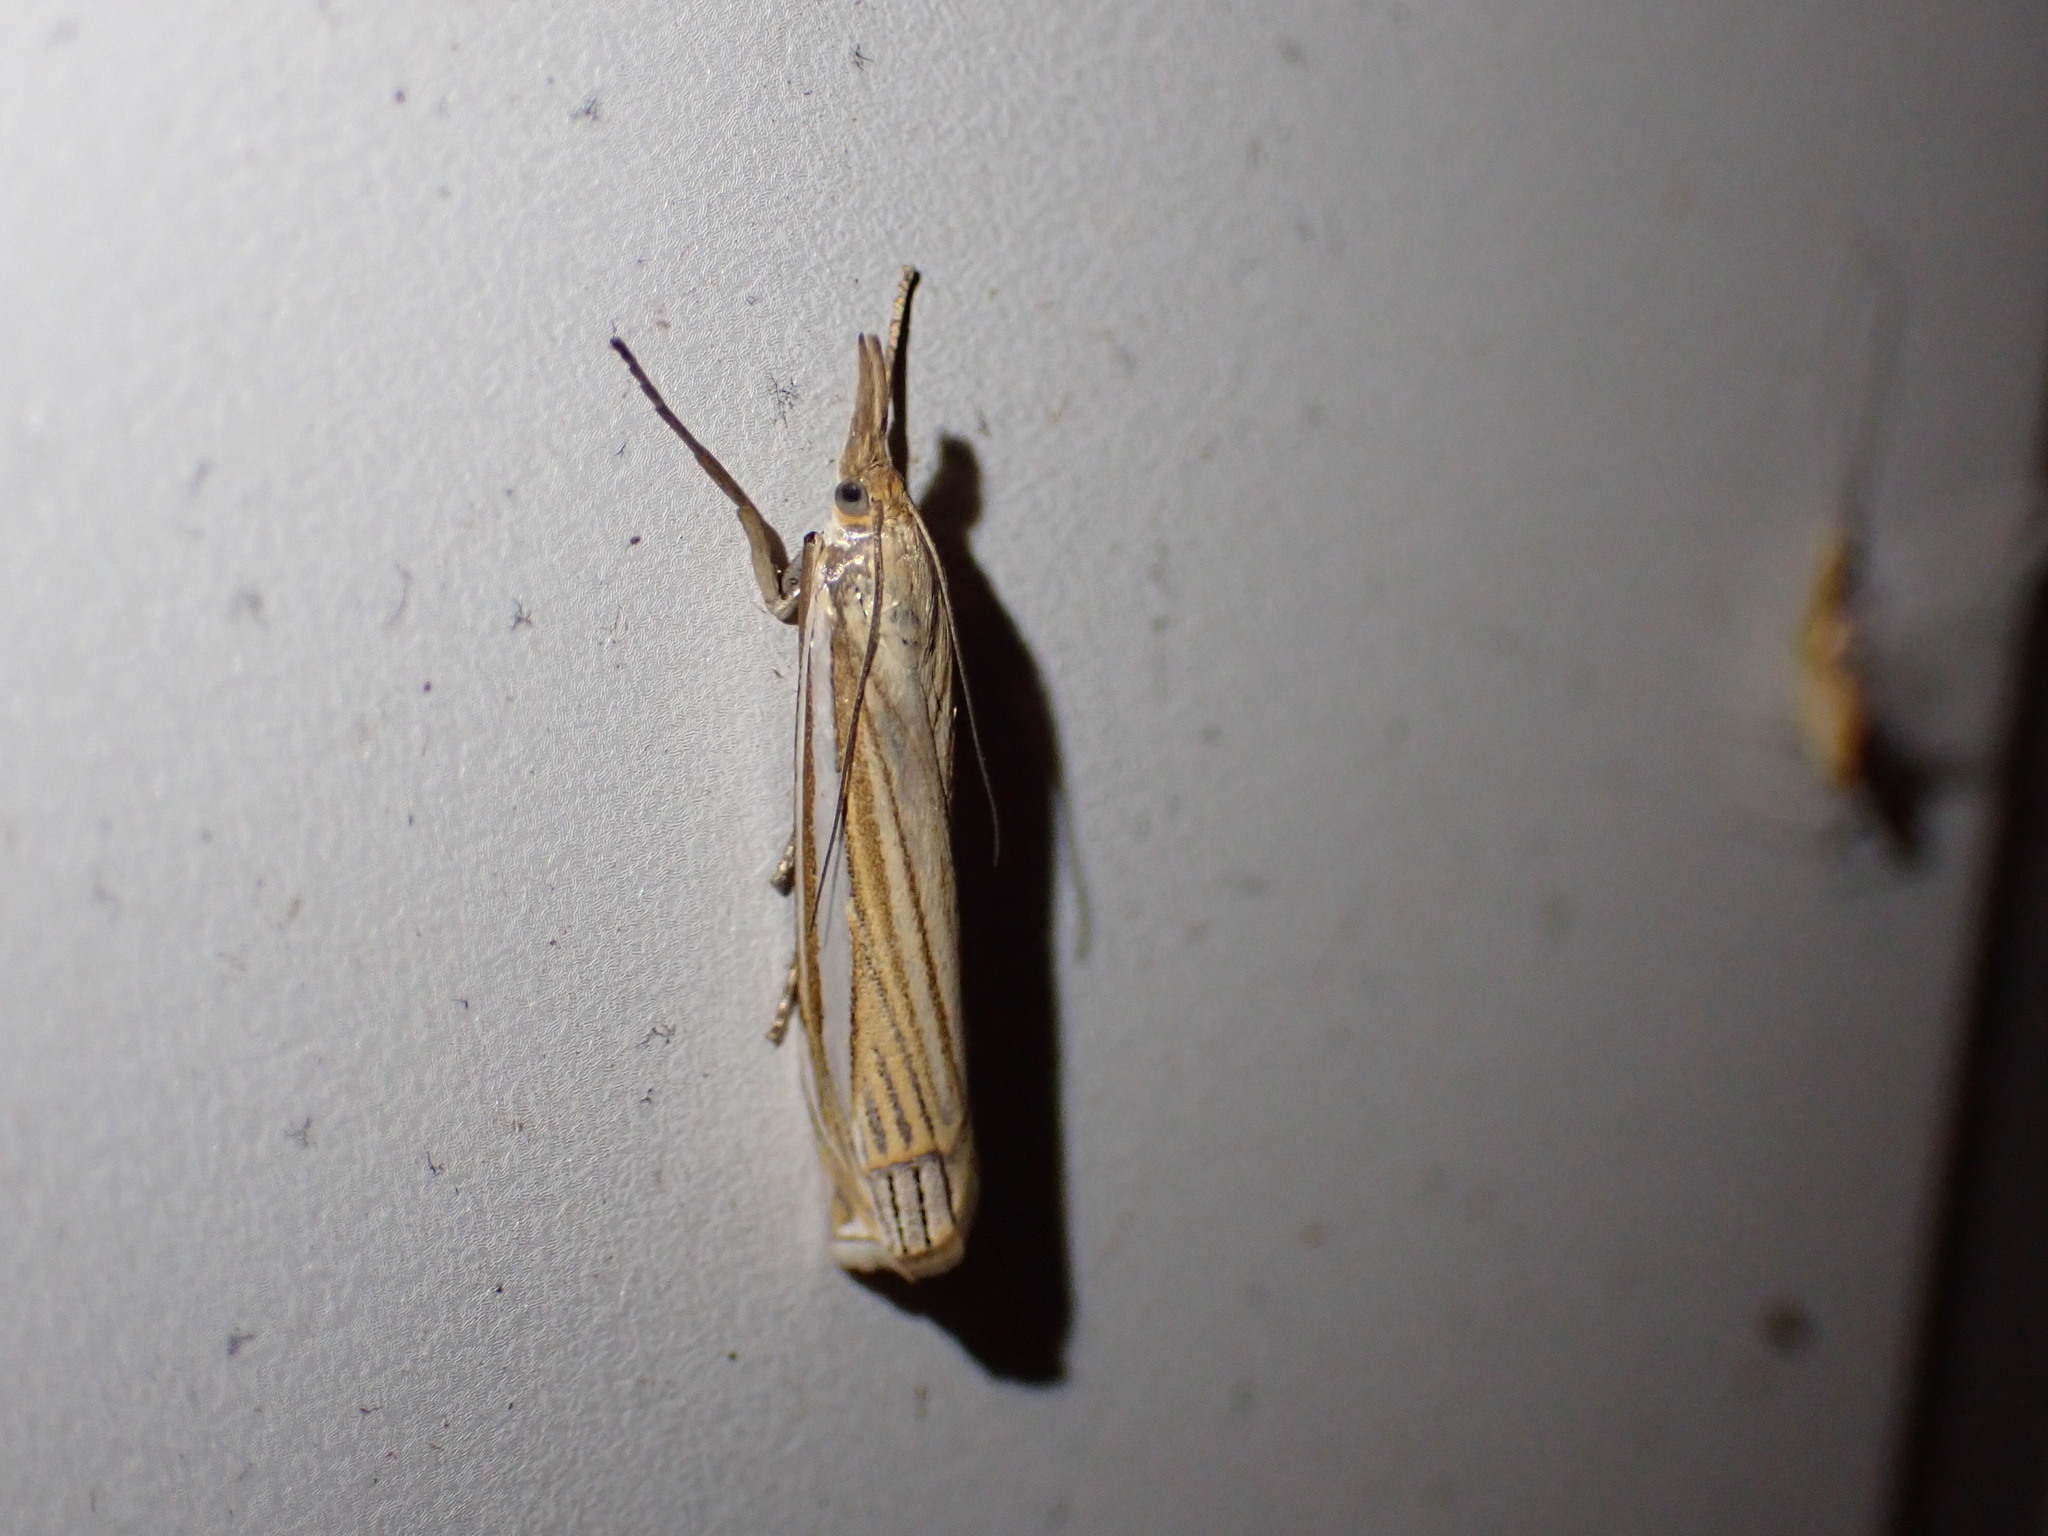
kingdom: Animalia
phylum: Arthropoda
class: Insecta
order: Lepidoptera
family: Crambidae
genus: Crambus
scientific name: Crambus laqueatellus
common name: Eastern grass-veneer
